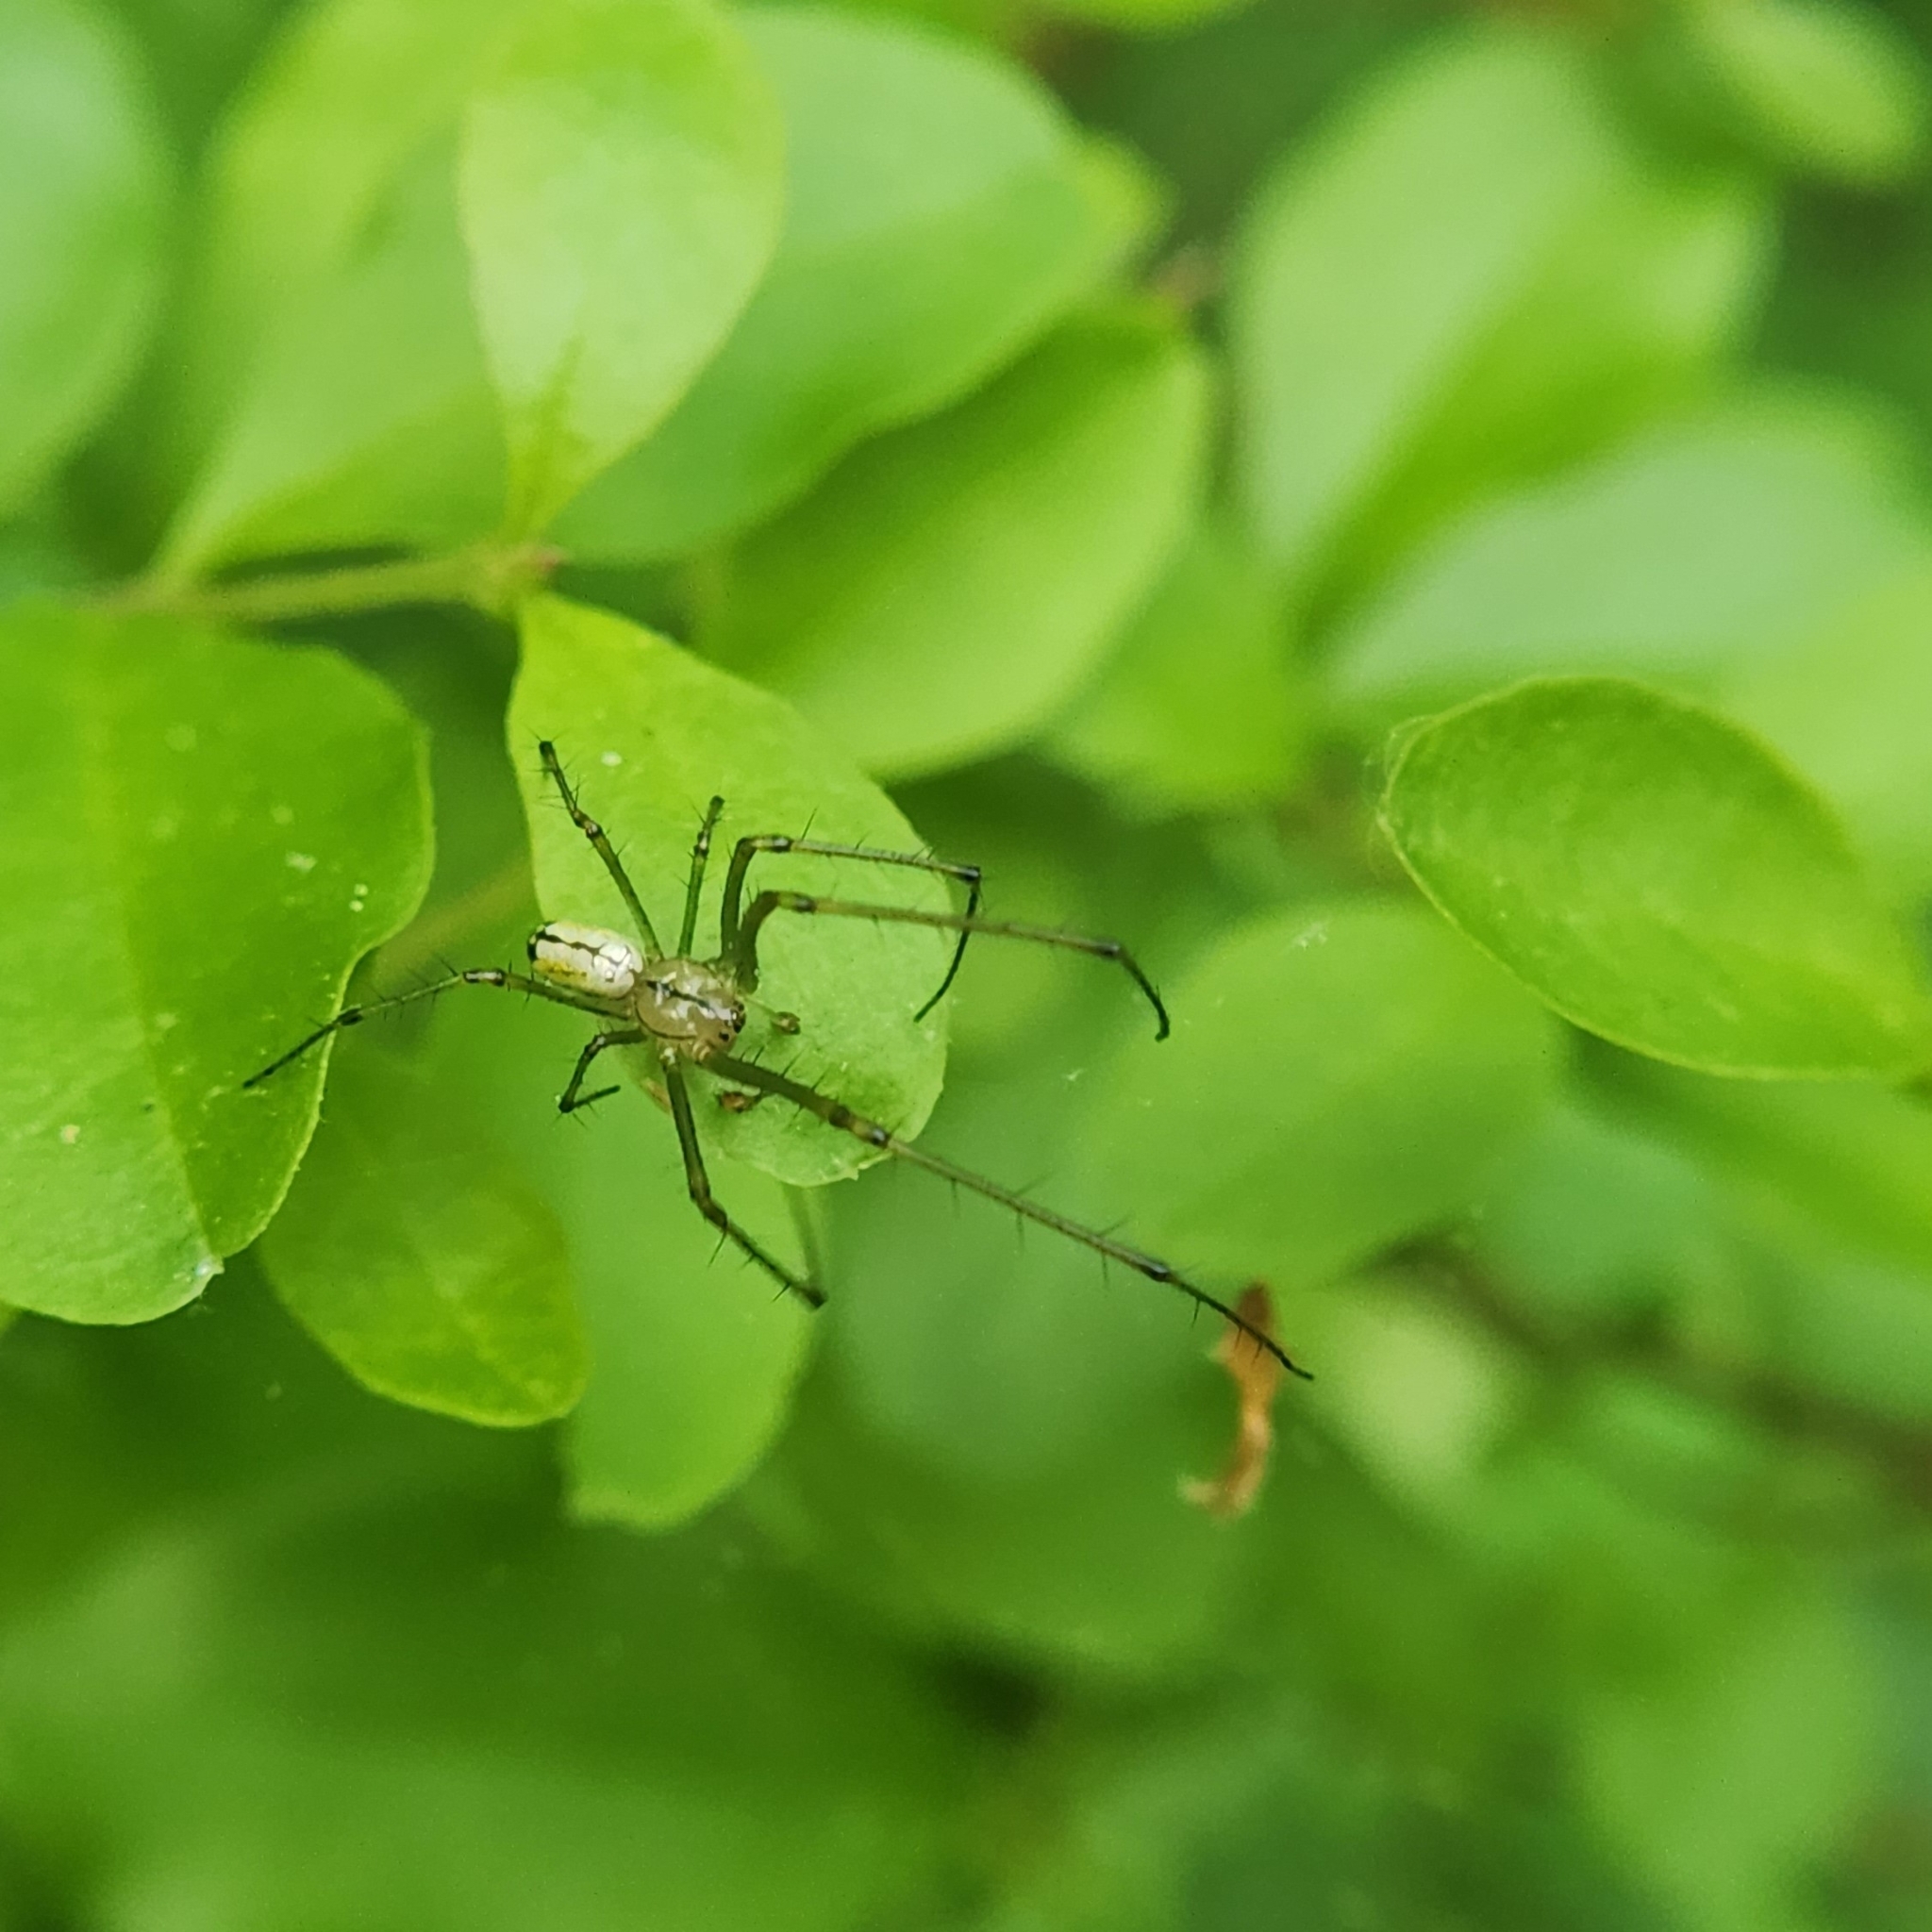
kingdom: Animalia
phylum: Arthropoda
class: Arachnida
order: Araneae
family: Tetragnathidae
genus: Leucauge
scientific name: Leucauge venusta
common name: Longjawed orb weavers
